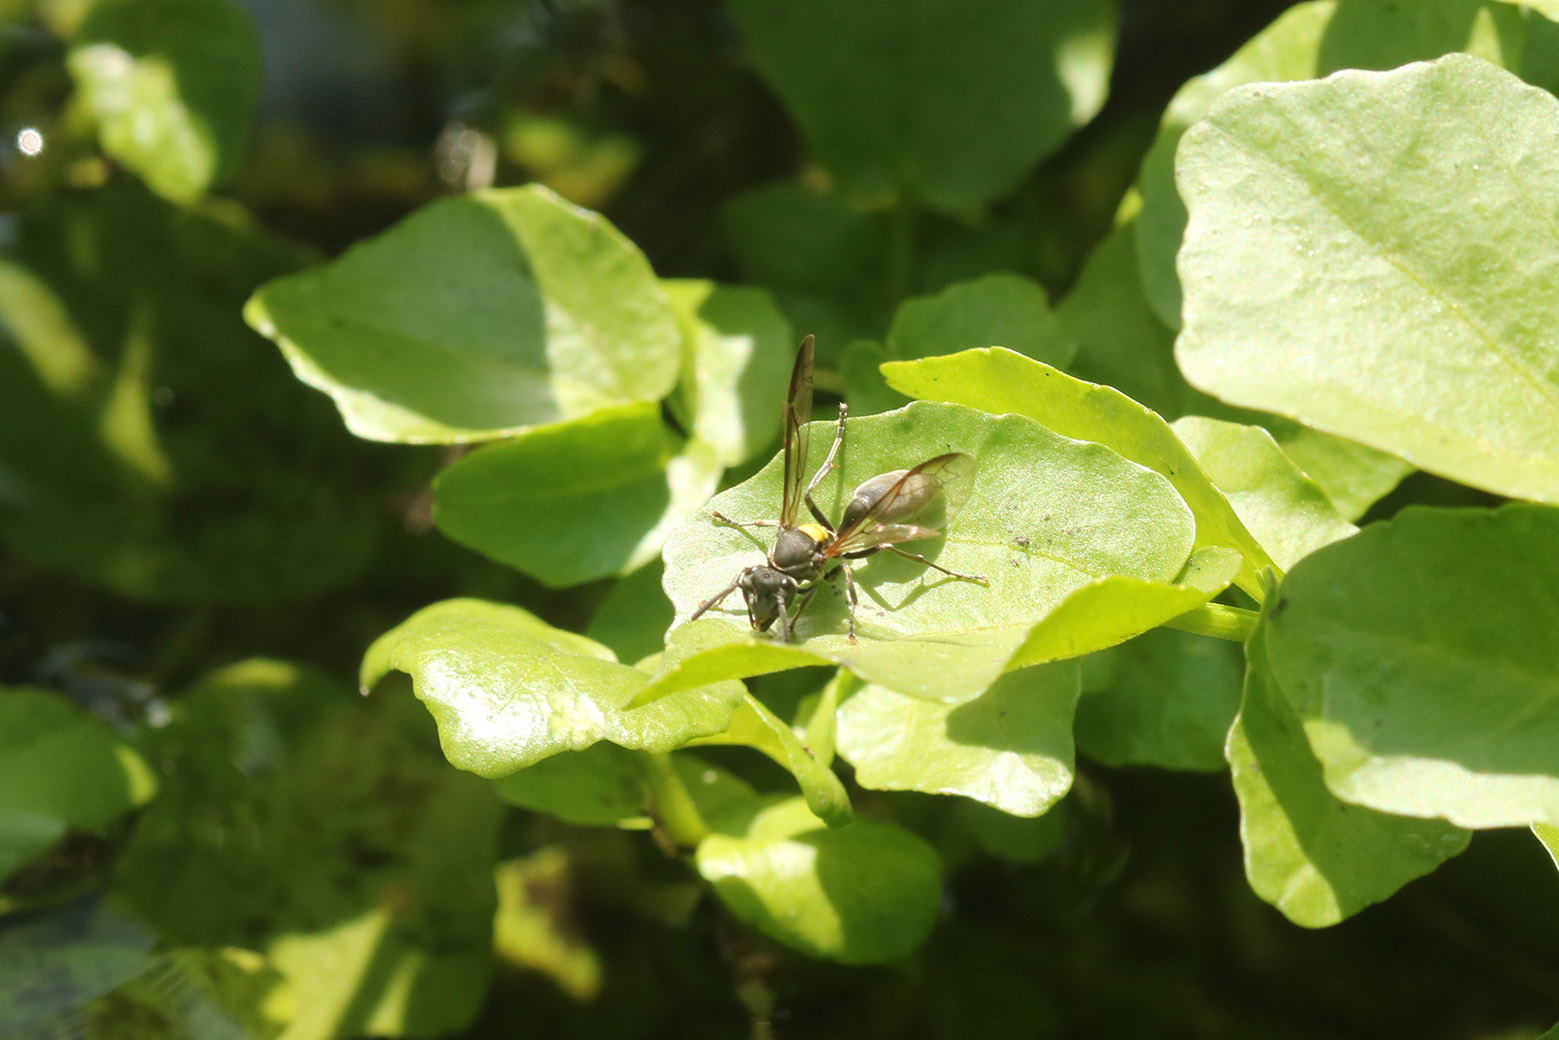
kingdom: Animalia
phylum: Arthropoda
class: Insecta
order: Hymenoptera
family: Eumenidae
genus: Polybia
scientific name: Polybia scutellaris
